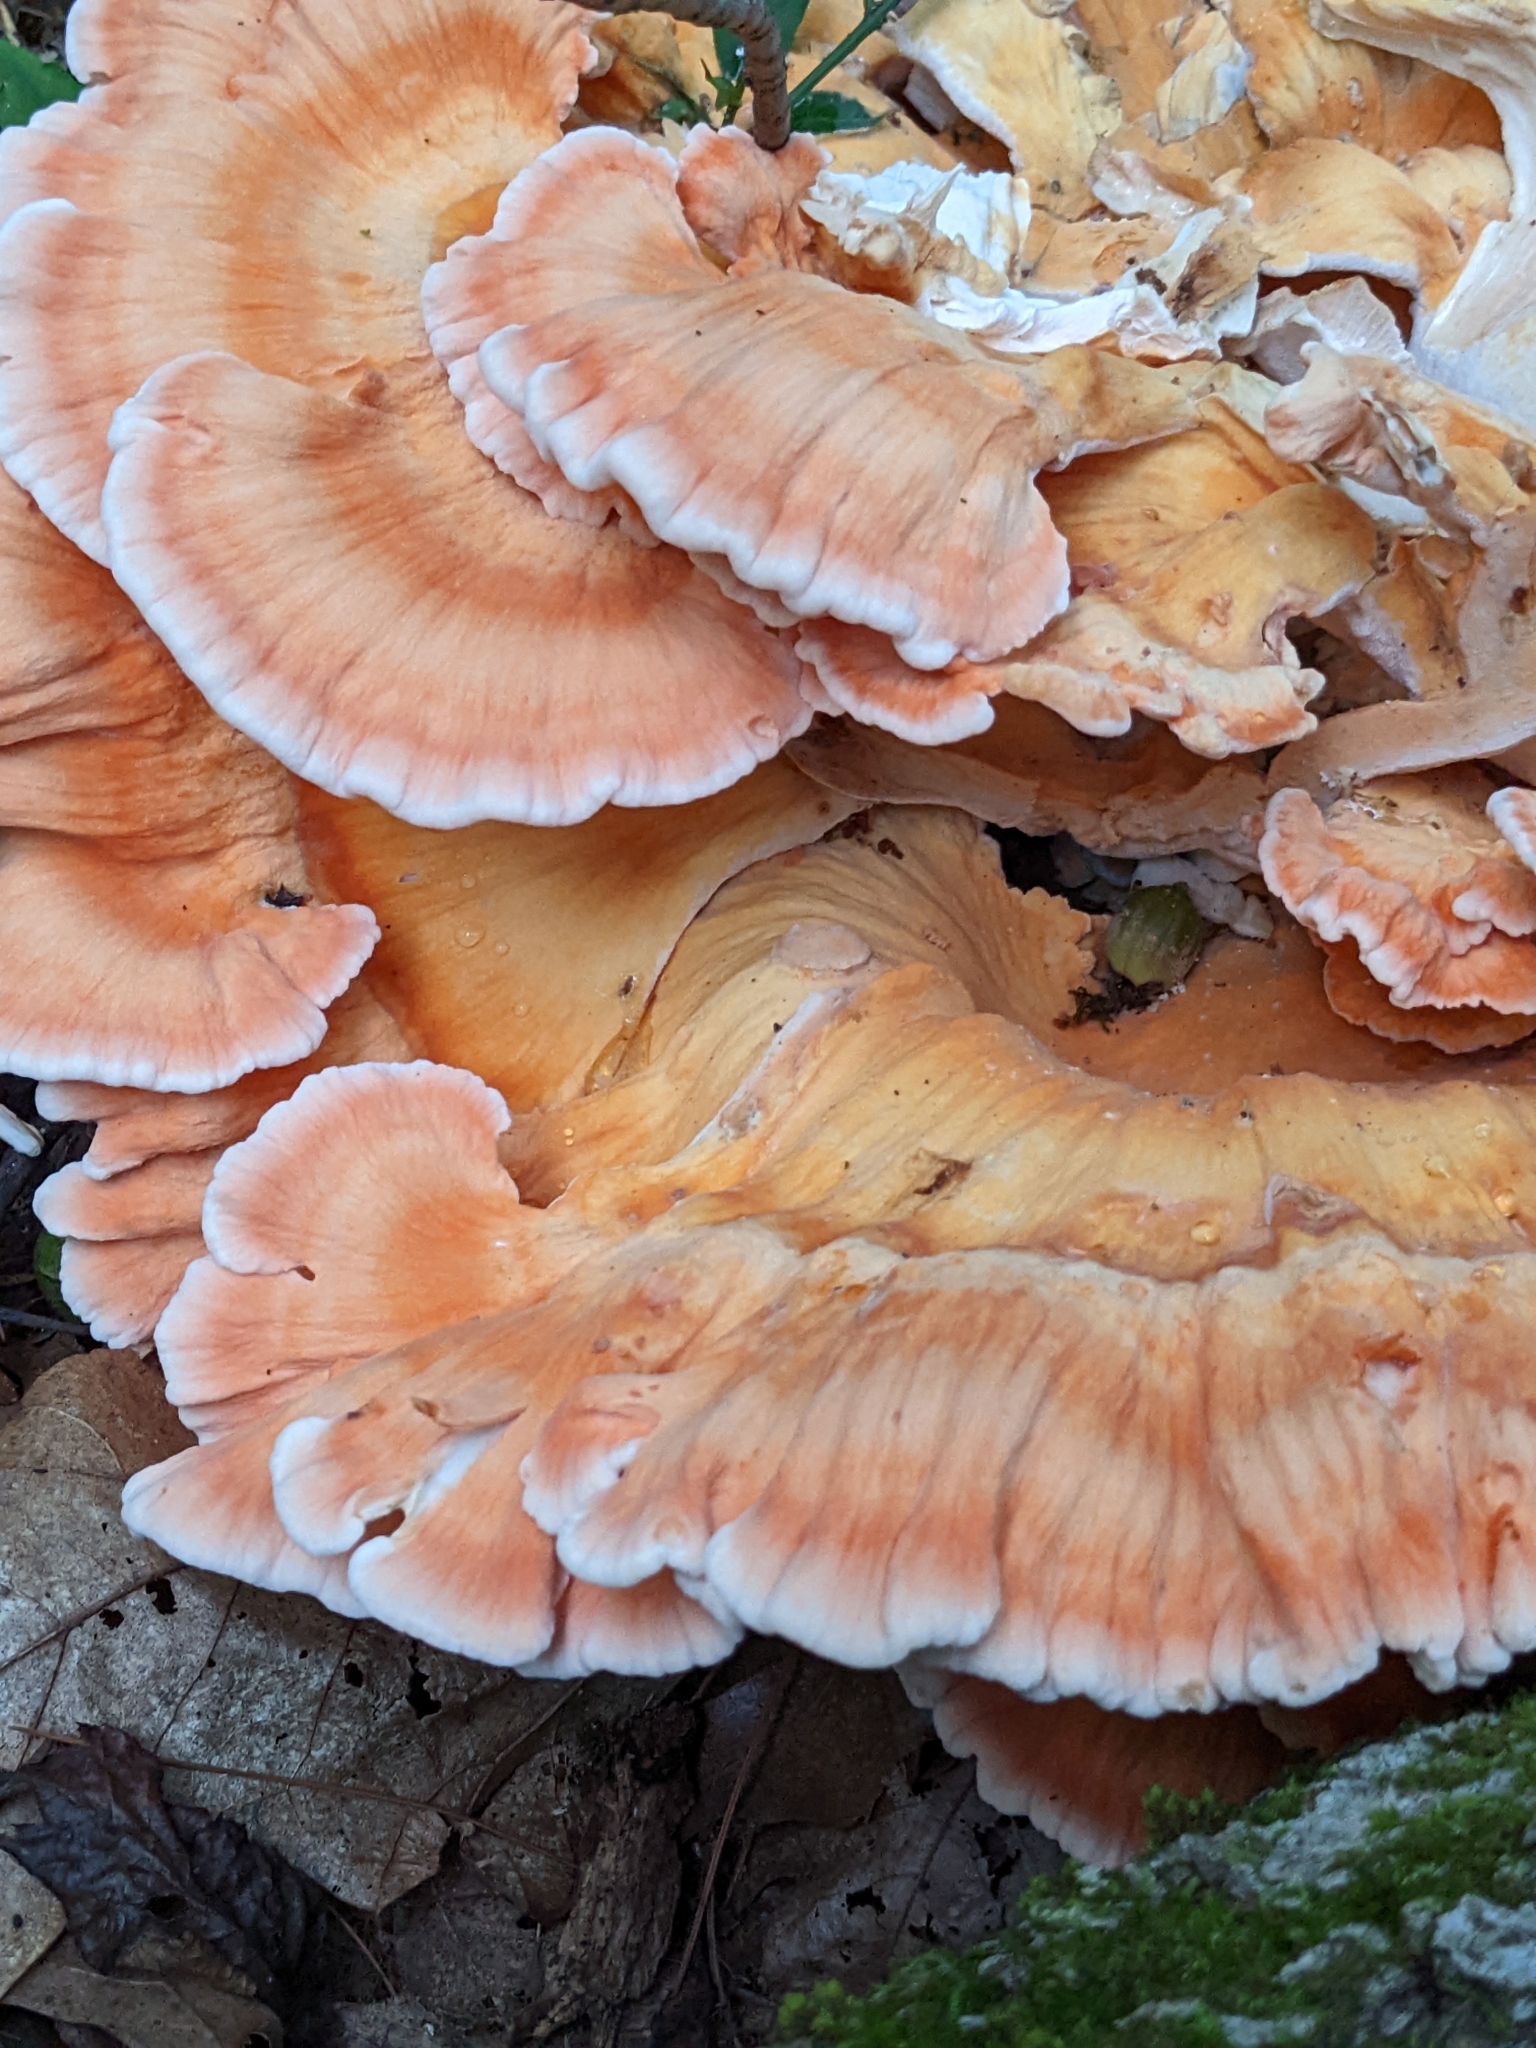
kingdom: Fungi
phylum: Basidiomycota
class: Agaricomycetes
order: Polyporales
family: Laetiporaceae
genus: Laetiporus
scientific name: Laetiporus sulphureus
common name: Chicken of the woods
